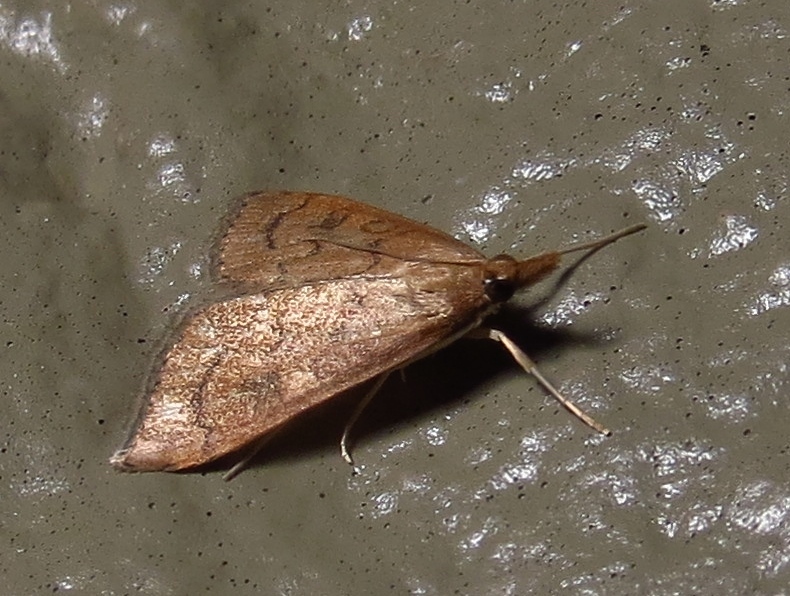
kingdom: Animalia
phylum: Arthropoda
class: Insecta
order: Lepidoptera
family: Crambidae
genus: Udea
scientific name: Udea rubigalis
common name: Celery leaftier moth
